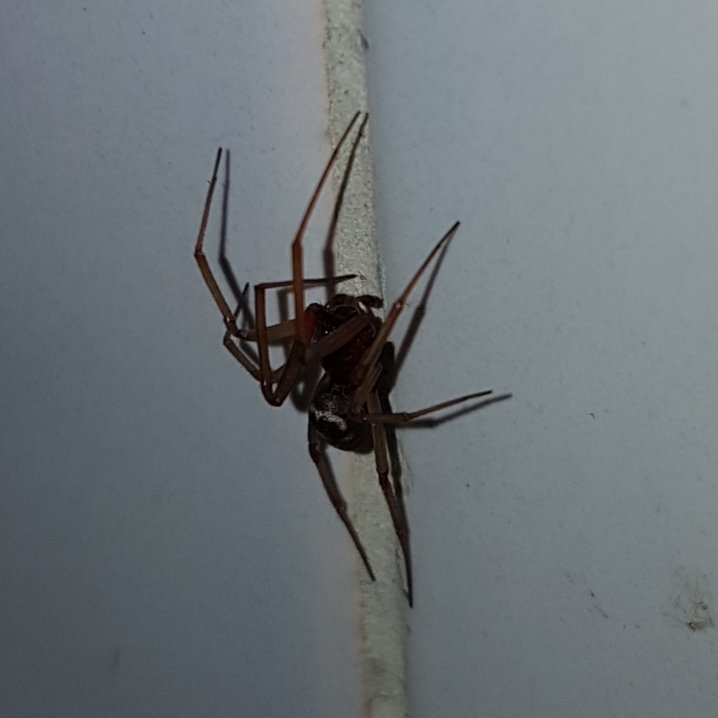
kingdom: Animalia
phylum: Arthropoda
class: Arachnida
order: Araneae
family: Theridiidae
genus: Steatoda
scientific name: Steatoda grossa
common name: False black widow
